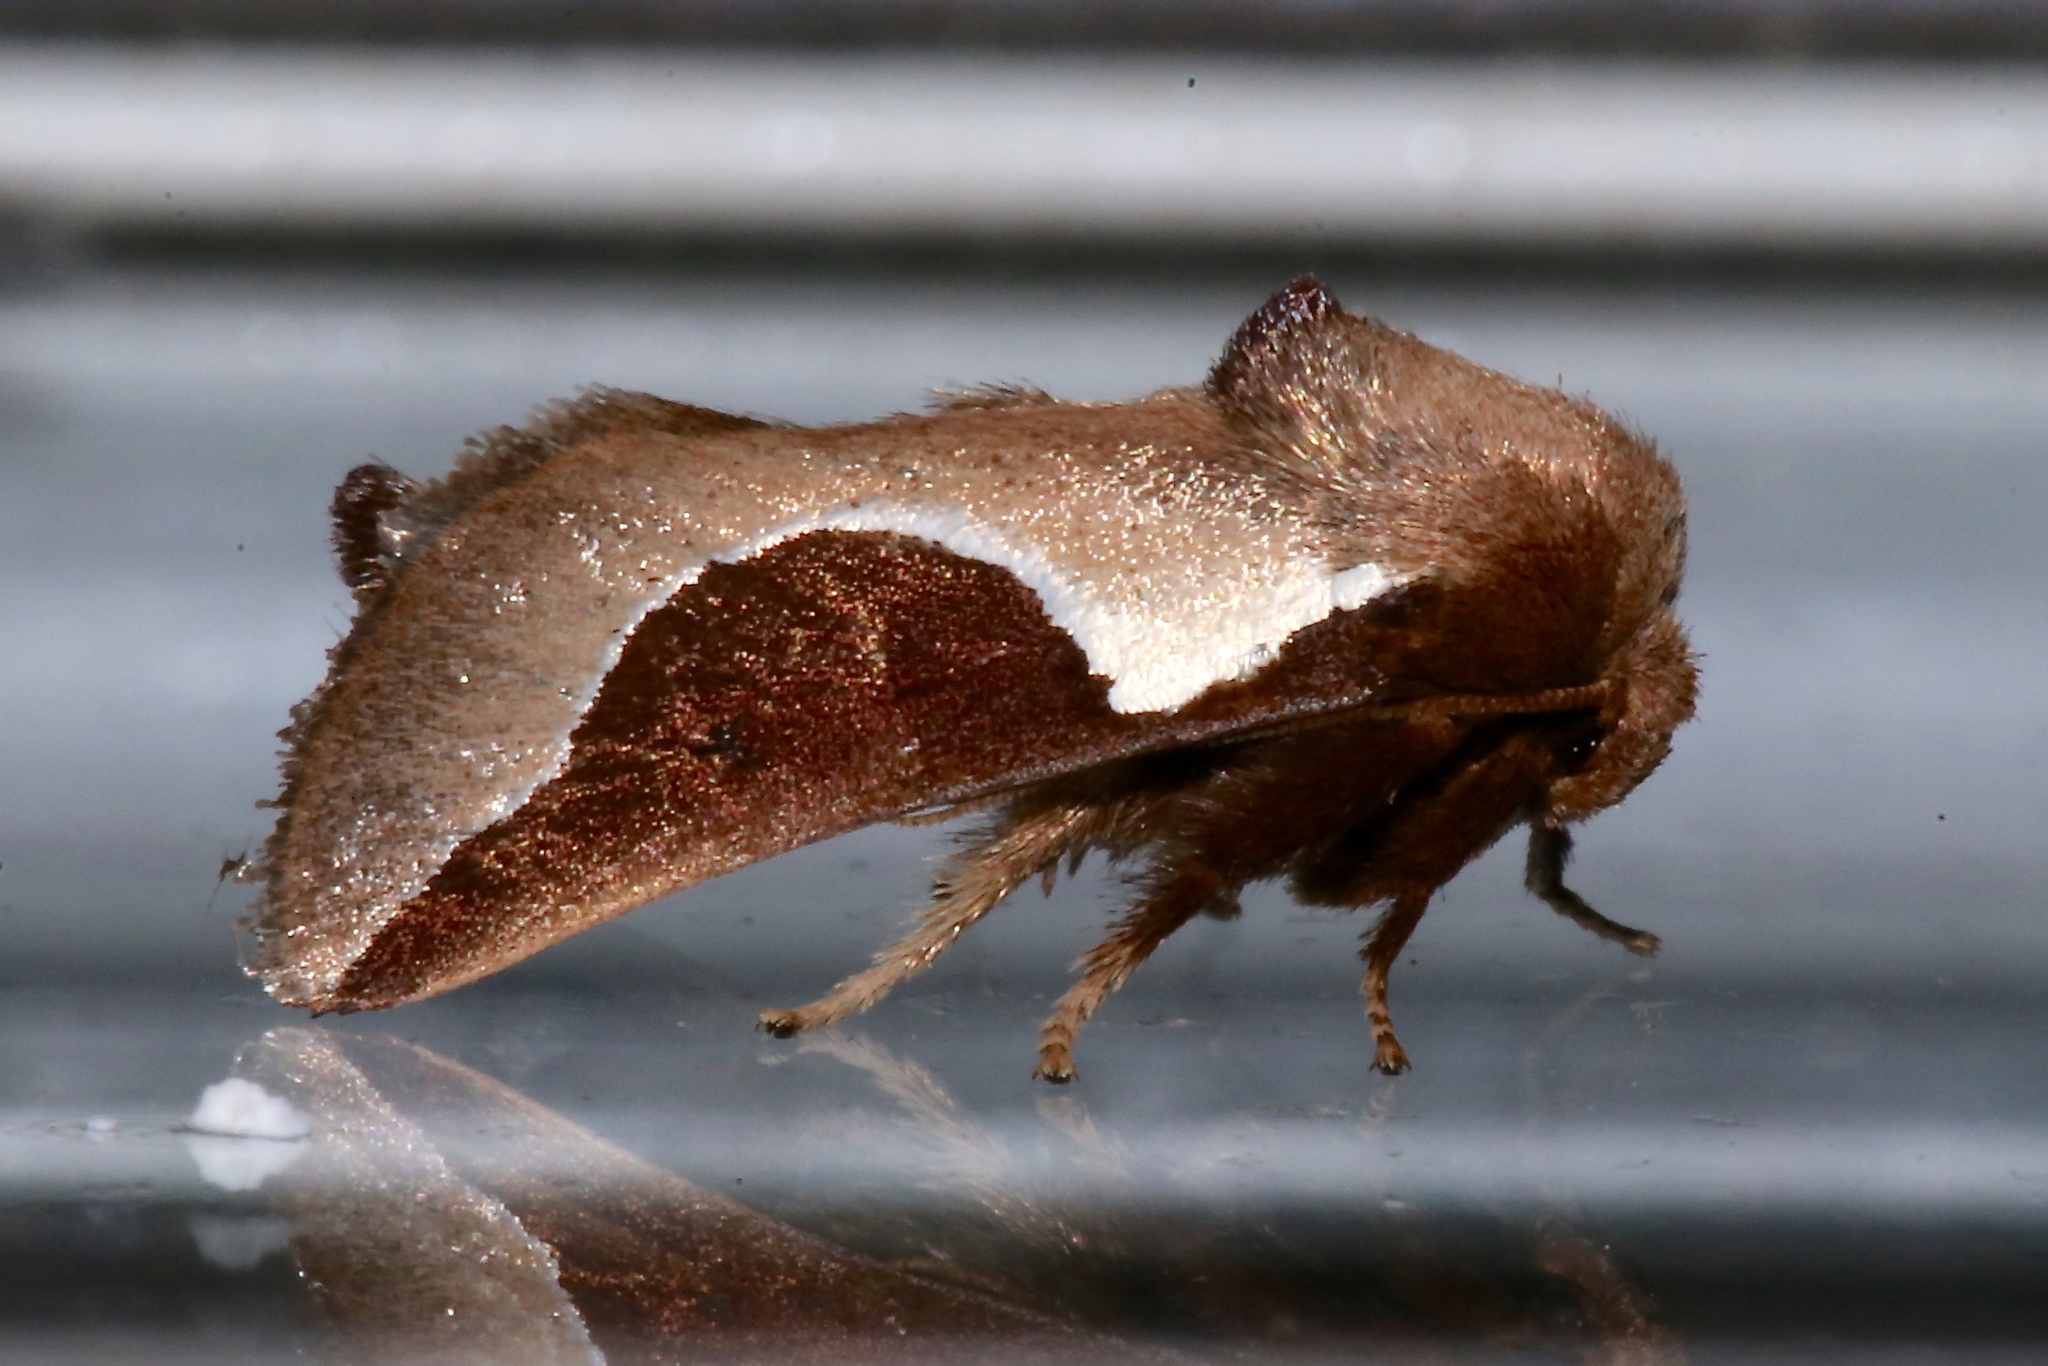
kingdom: Animalia
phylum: Arthropoda
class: Insecta
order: Lepidoptera
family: Limacodidae
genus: Prolimacodes
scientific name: Prolimacodes badia
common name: Skiff moth
